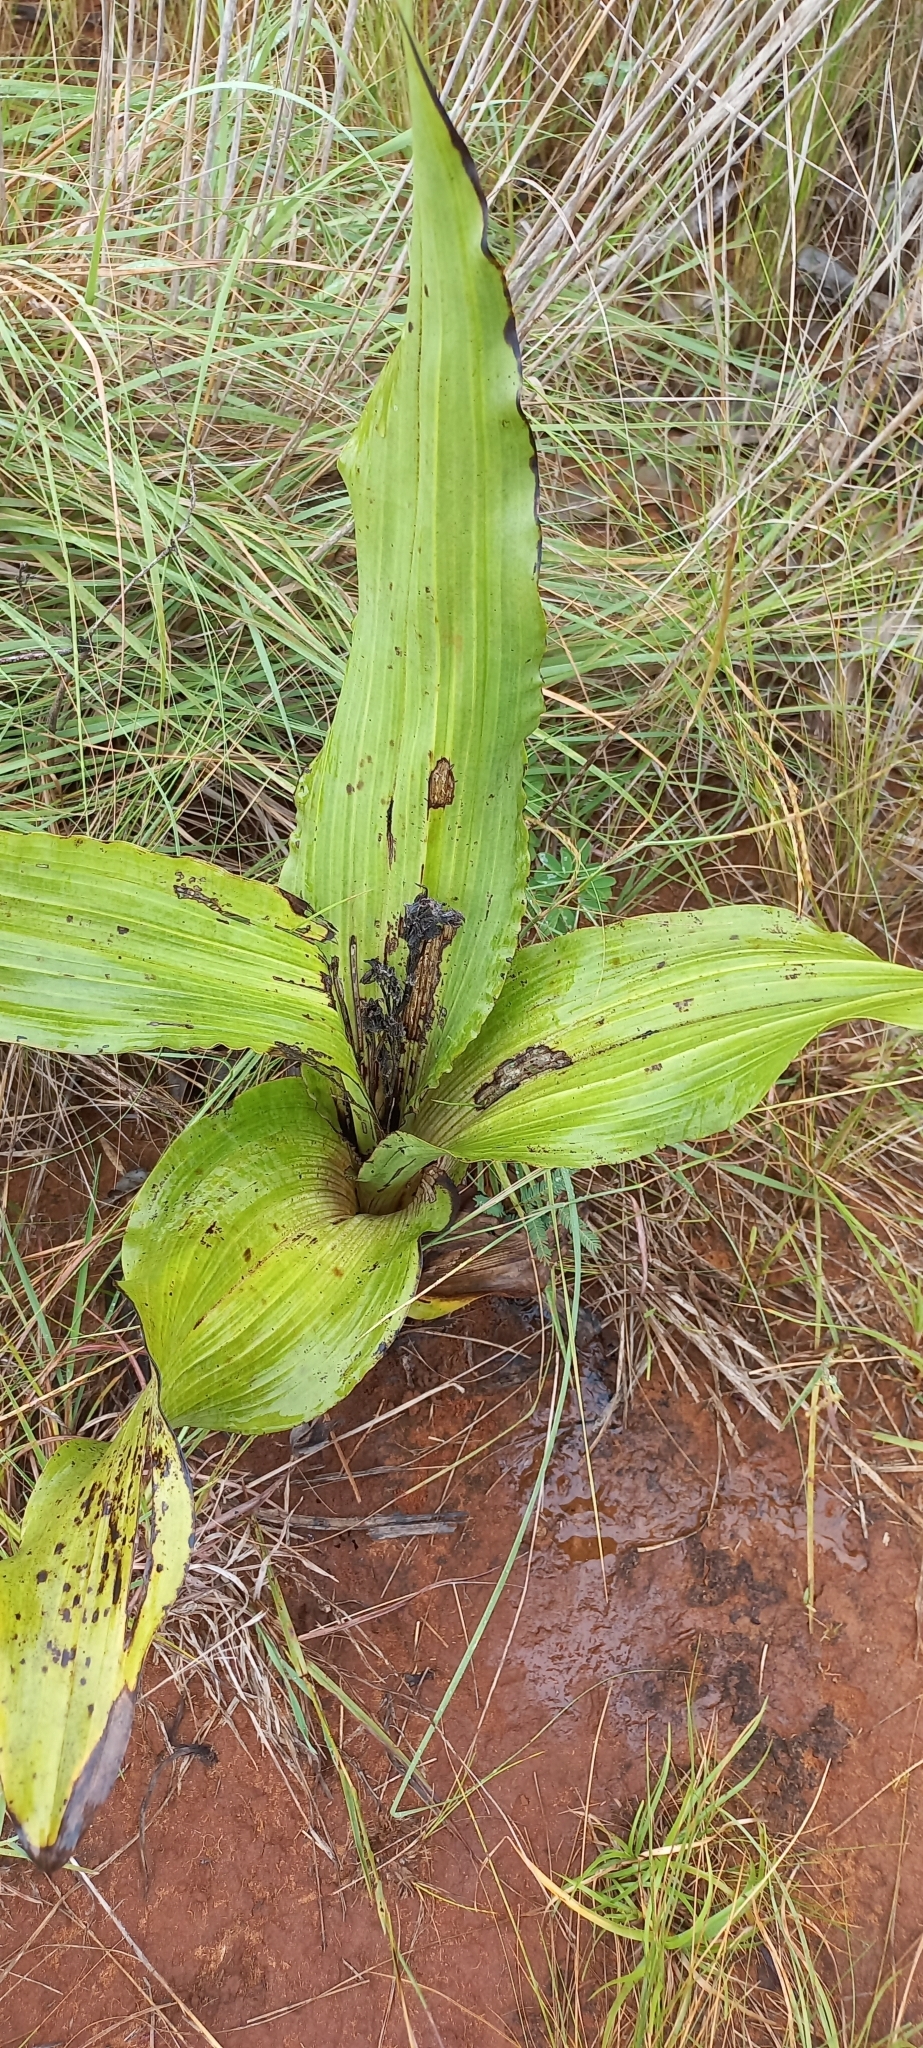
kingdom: Plantae
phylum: Tracheophyta
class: Liliopsida
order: Asparagales
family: Hypoxidaceae
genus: Hypoxis
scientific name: Hypoxis colchicifolia
